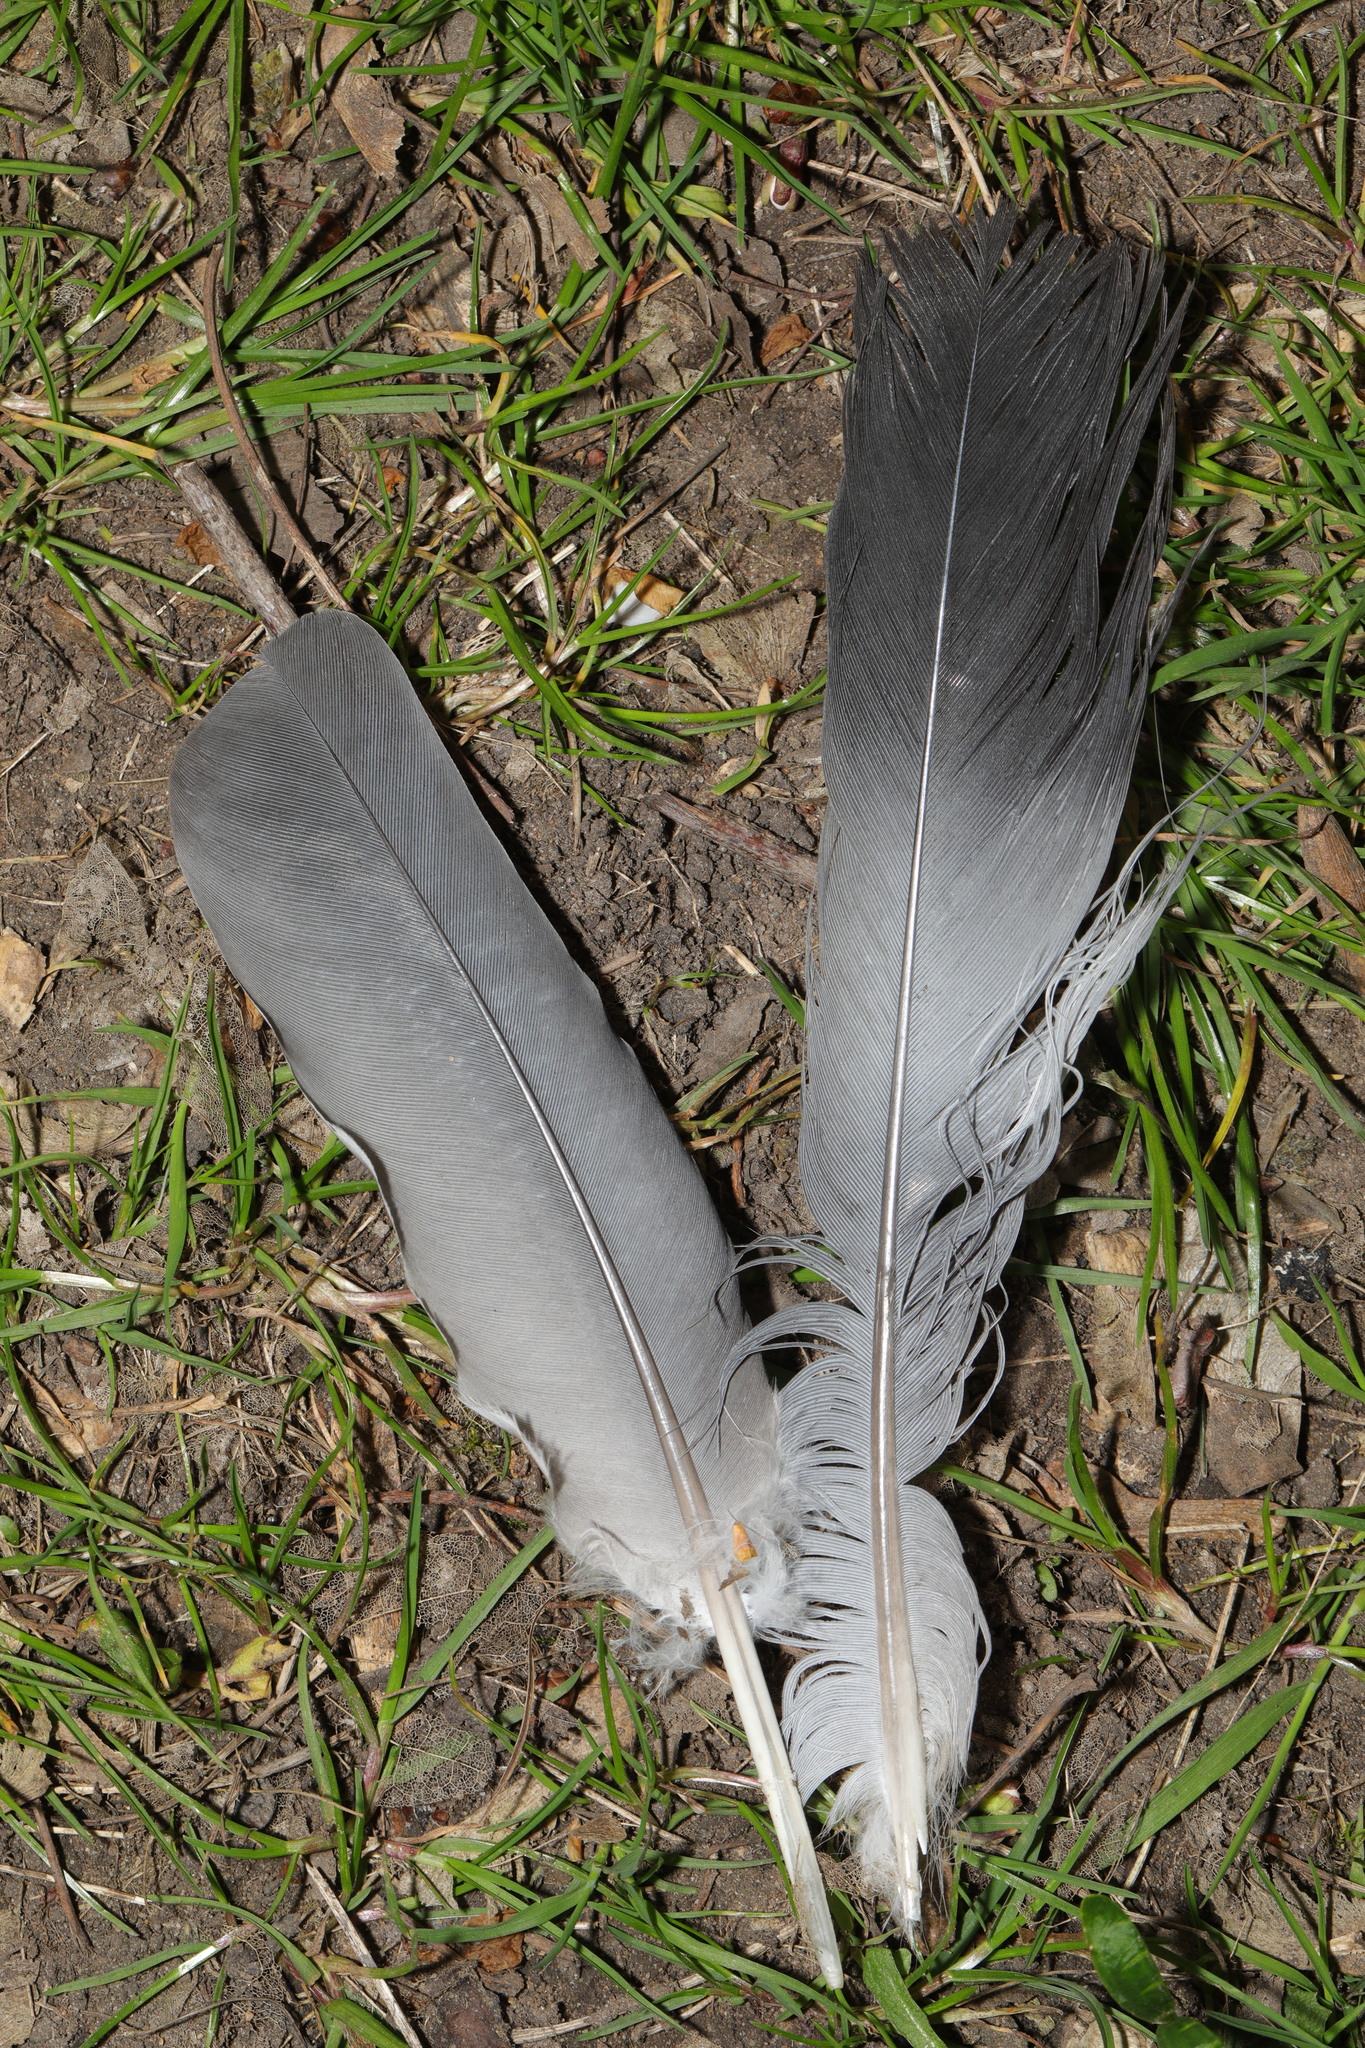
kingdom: Animalia
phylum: Chordata
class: Aves
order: Columbiformes
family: Columbidae
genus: Columba
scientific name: Columba palumbus
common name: Common wood pigeon
